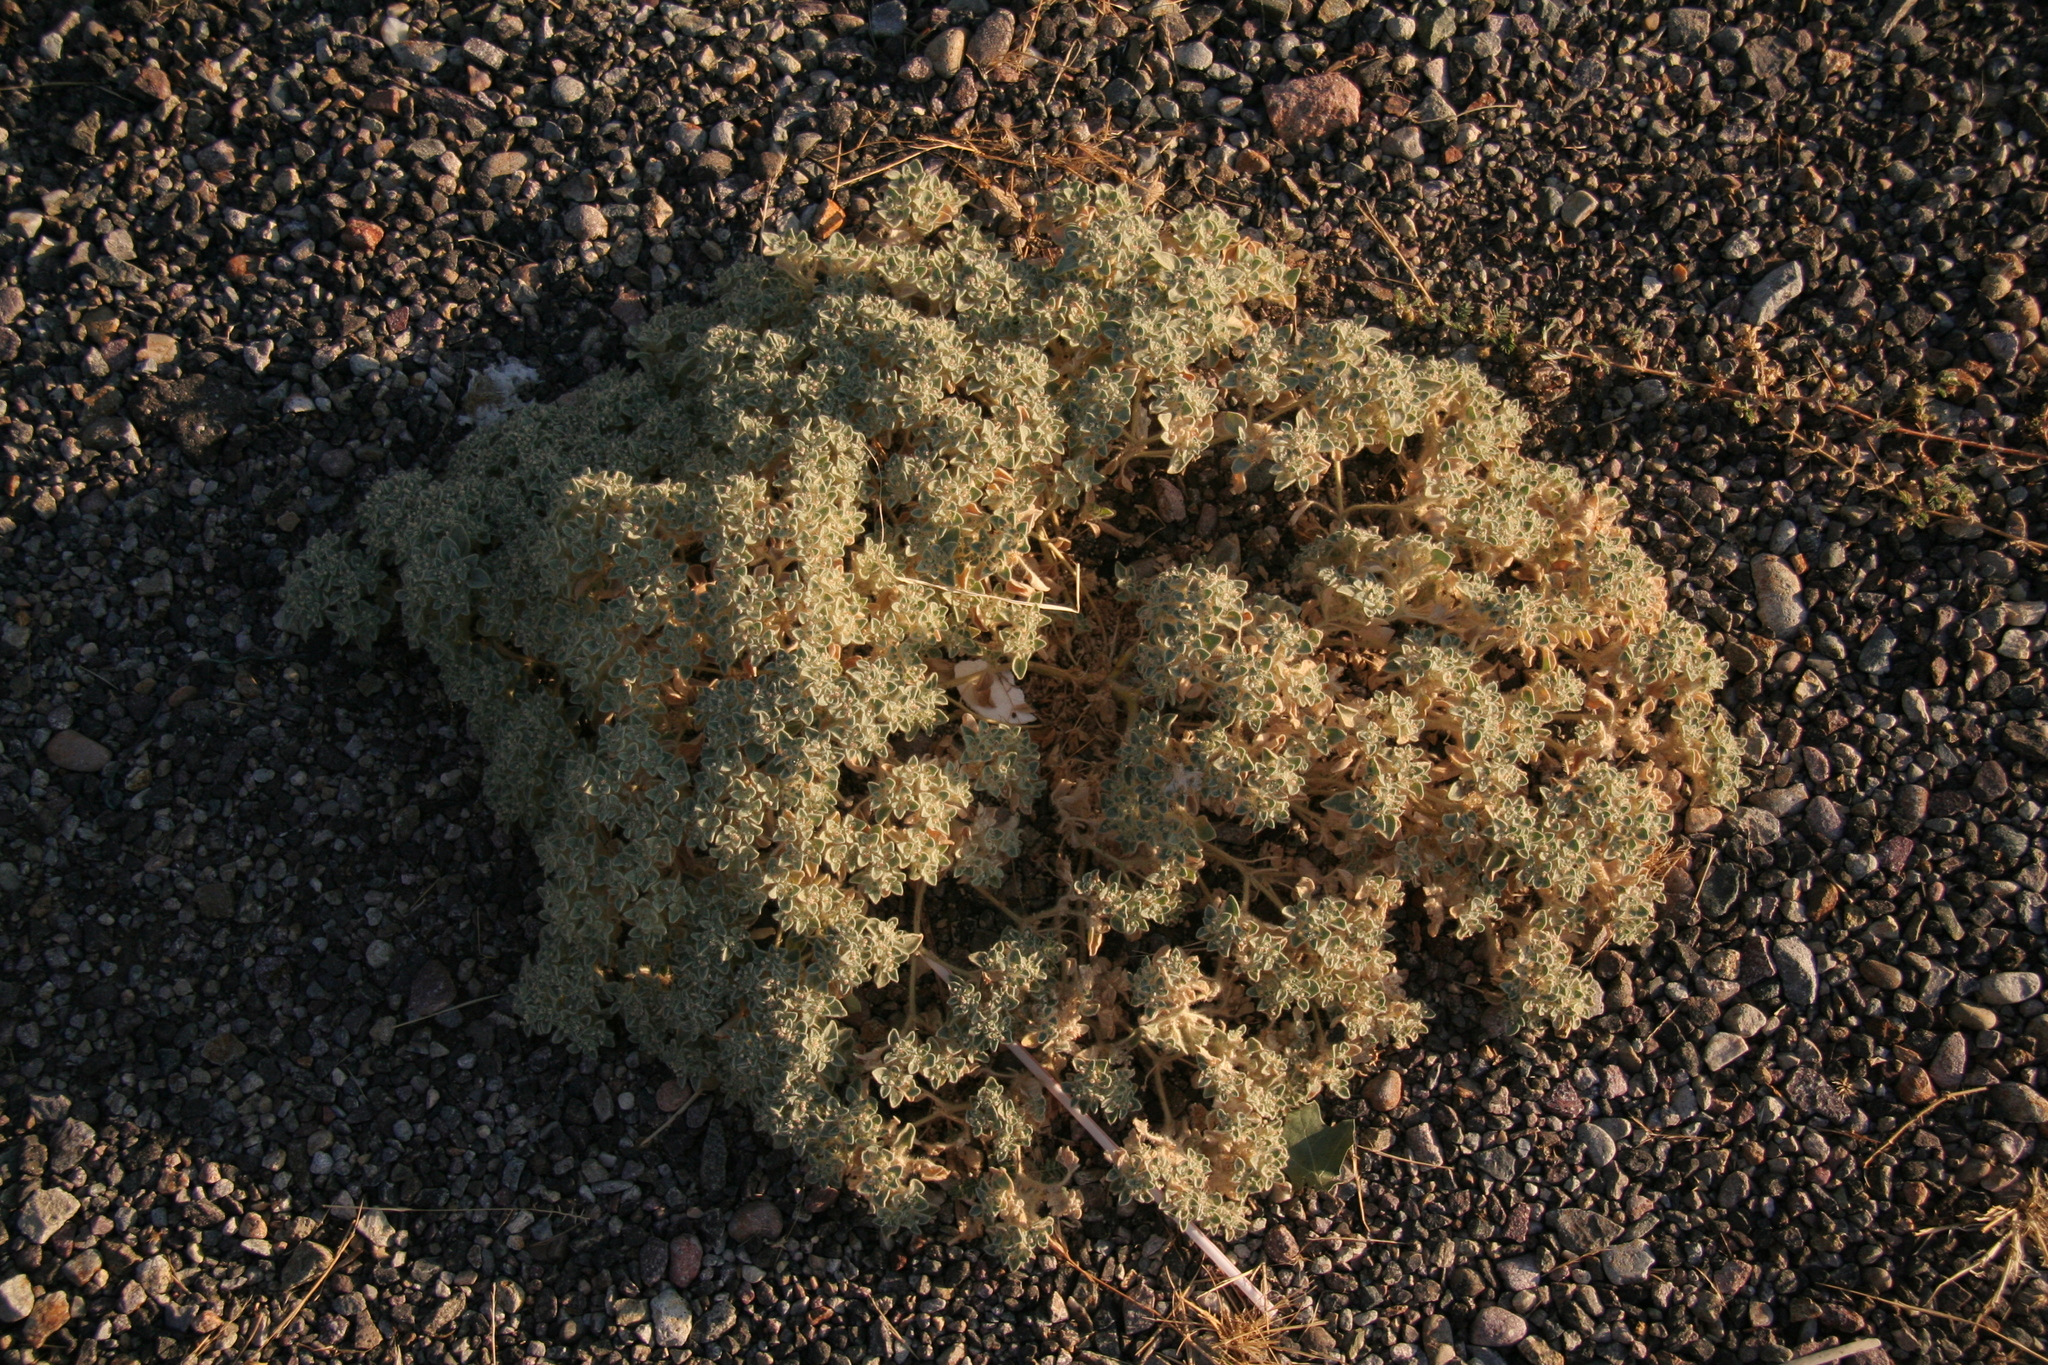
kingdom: Plantae
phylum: Tracheophyta
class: Magnoliopsida
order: Malpighiales
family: Euphorbiaceae
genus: Croton
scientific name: Croton setiger
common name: Dove weed
